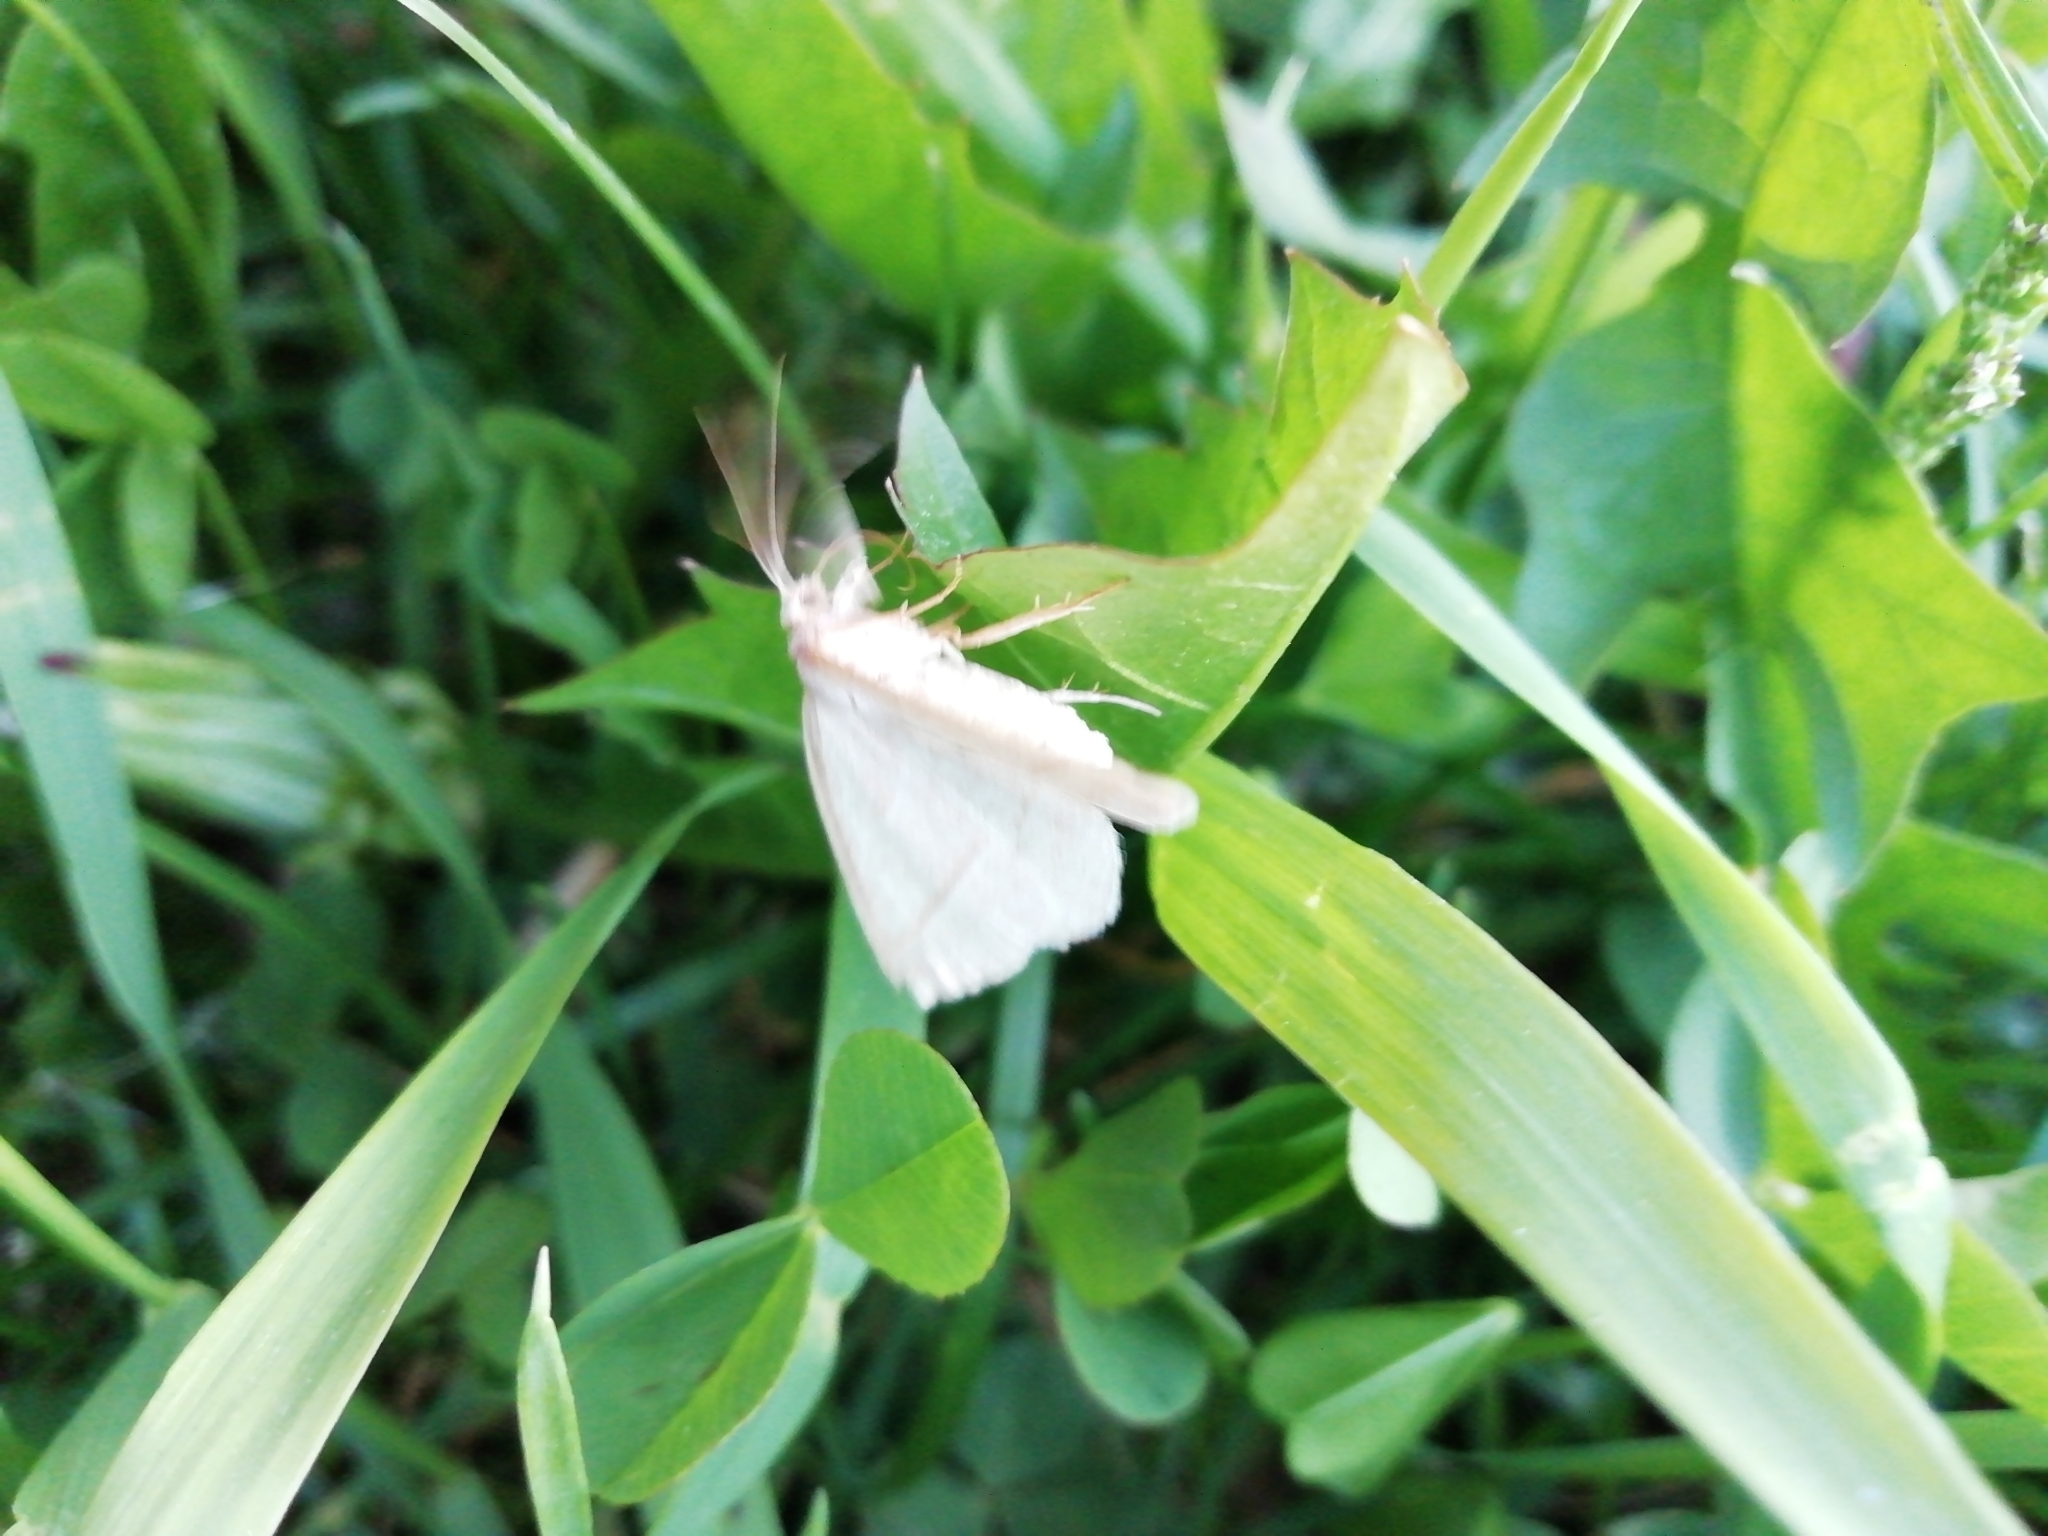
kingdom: Animalia
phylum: Arthropoda
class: Insecta
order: Lepidoptera
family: Pterophoridae
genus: Pterophorus
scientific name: Pterophorus Petrophora chlorosata
